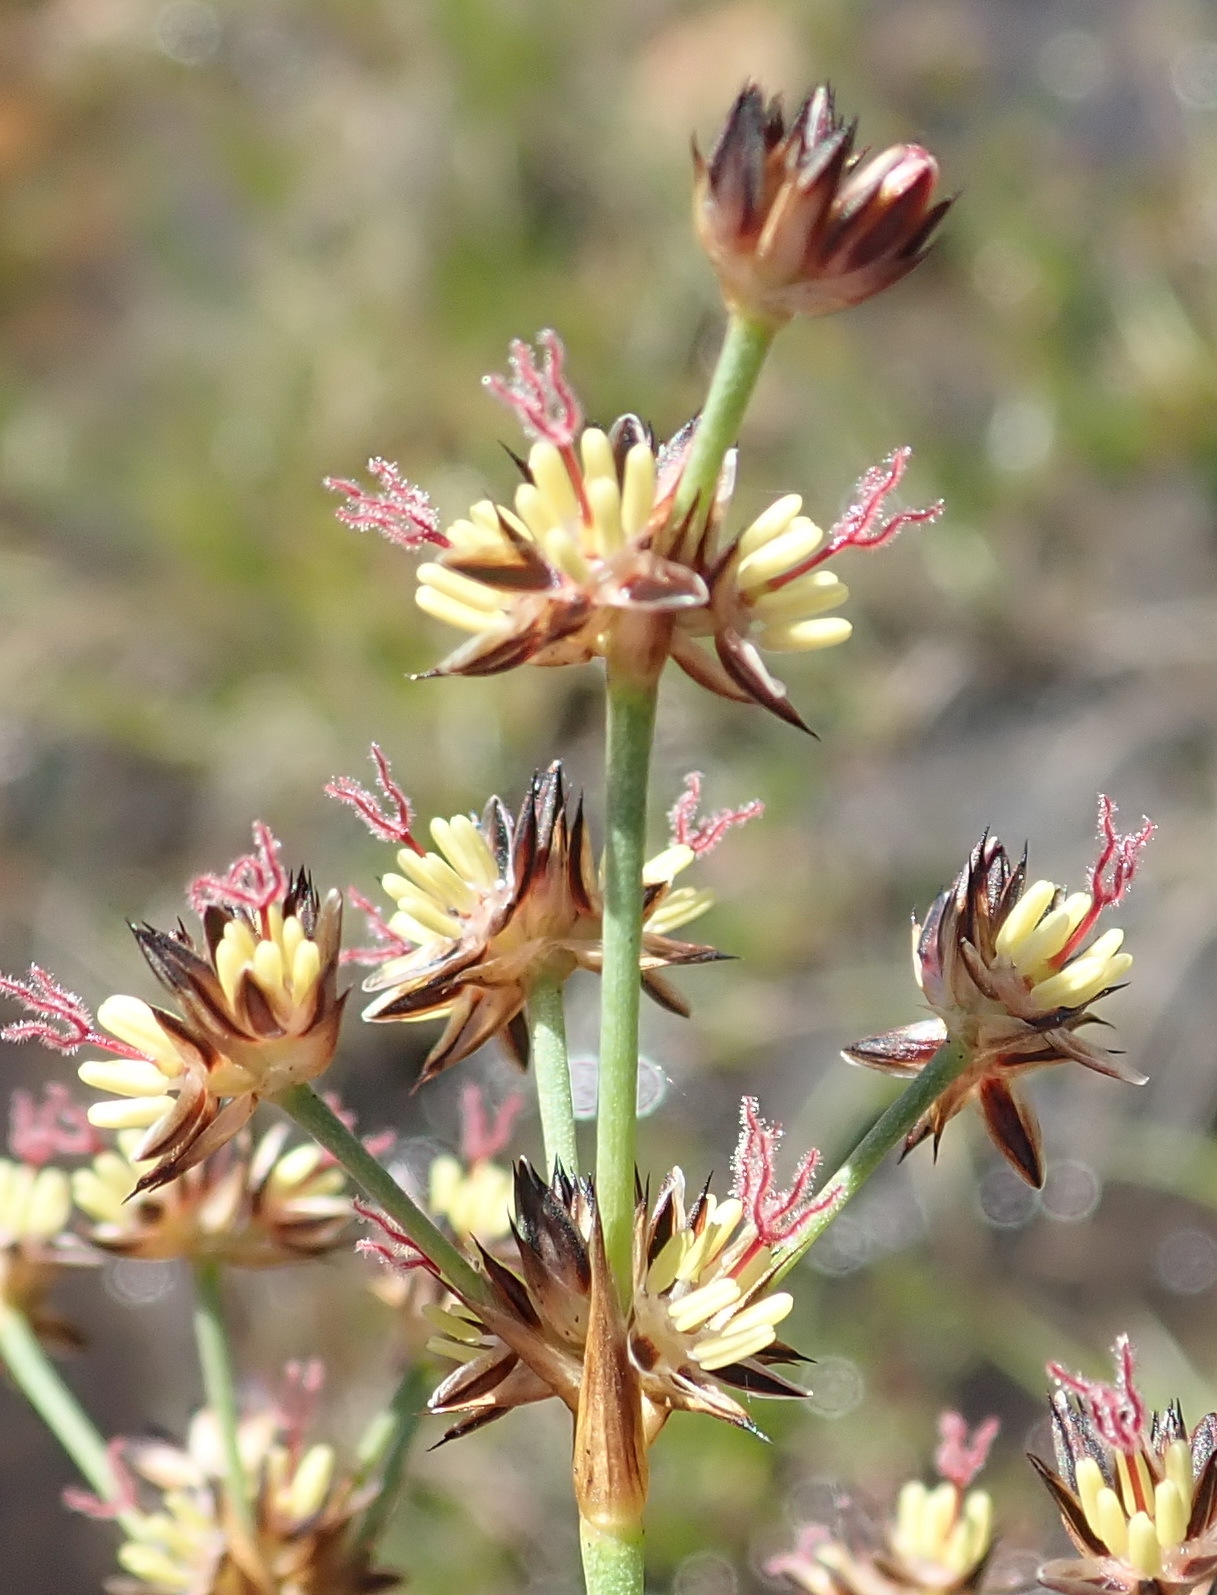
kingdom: Plantae
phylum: Tracheophyta
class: Liliopsida
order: Poales
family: Juncaceae
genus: Juncus
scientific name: Juncus lomatophyllus
